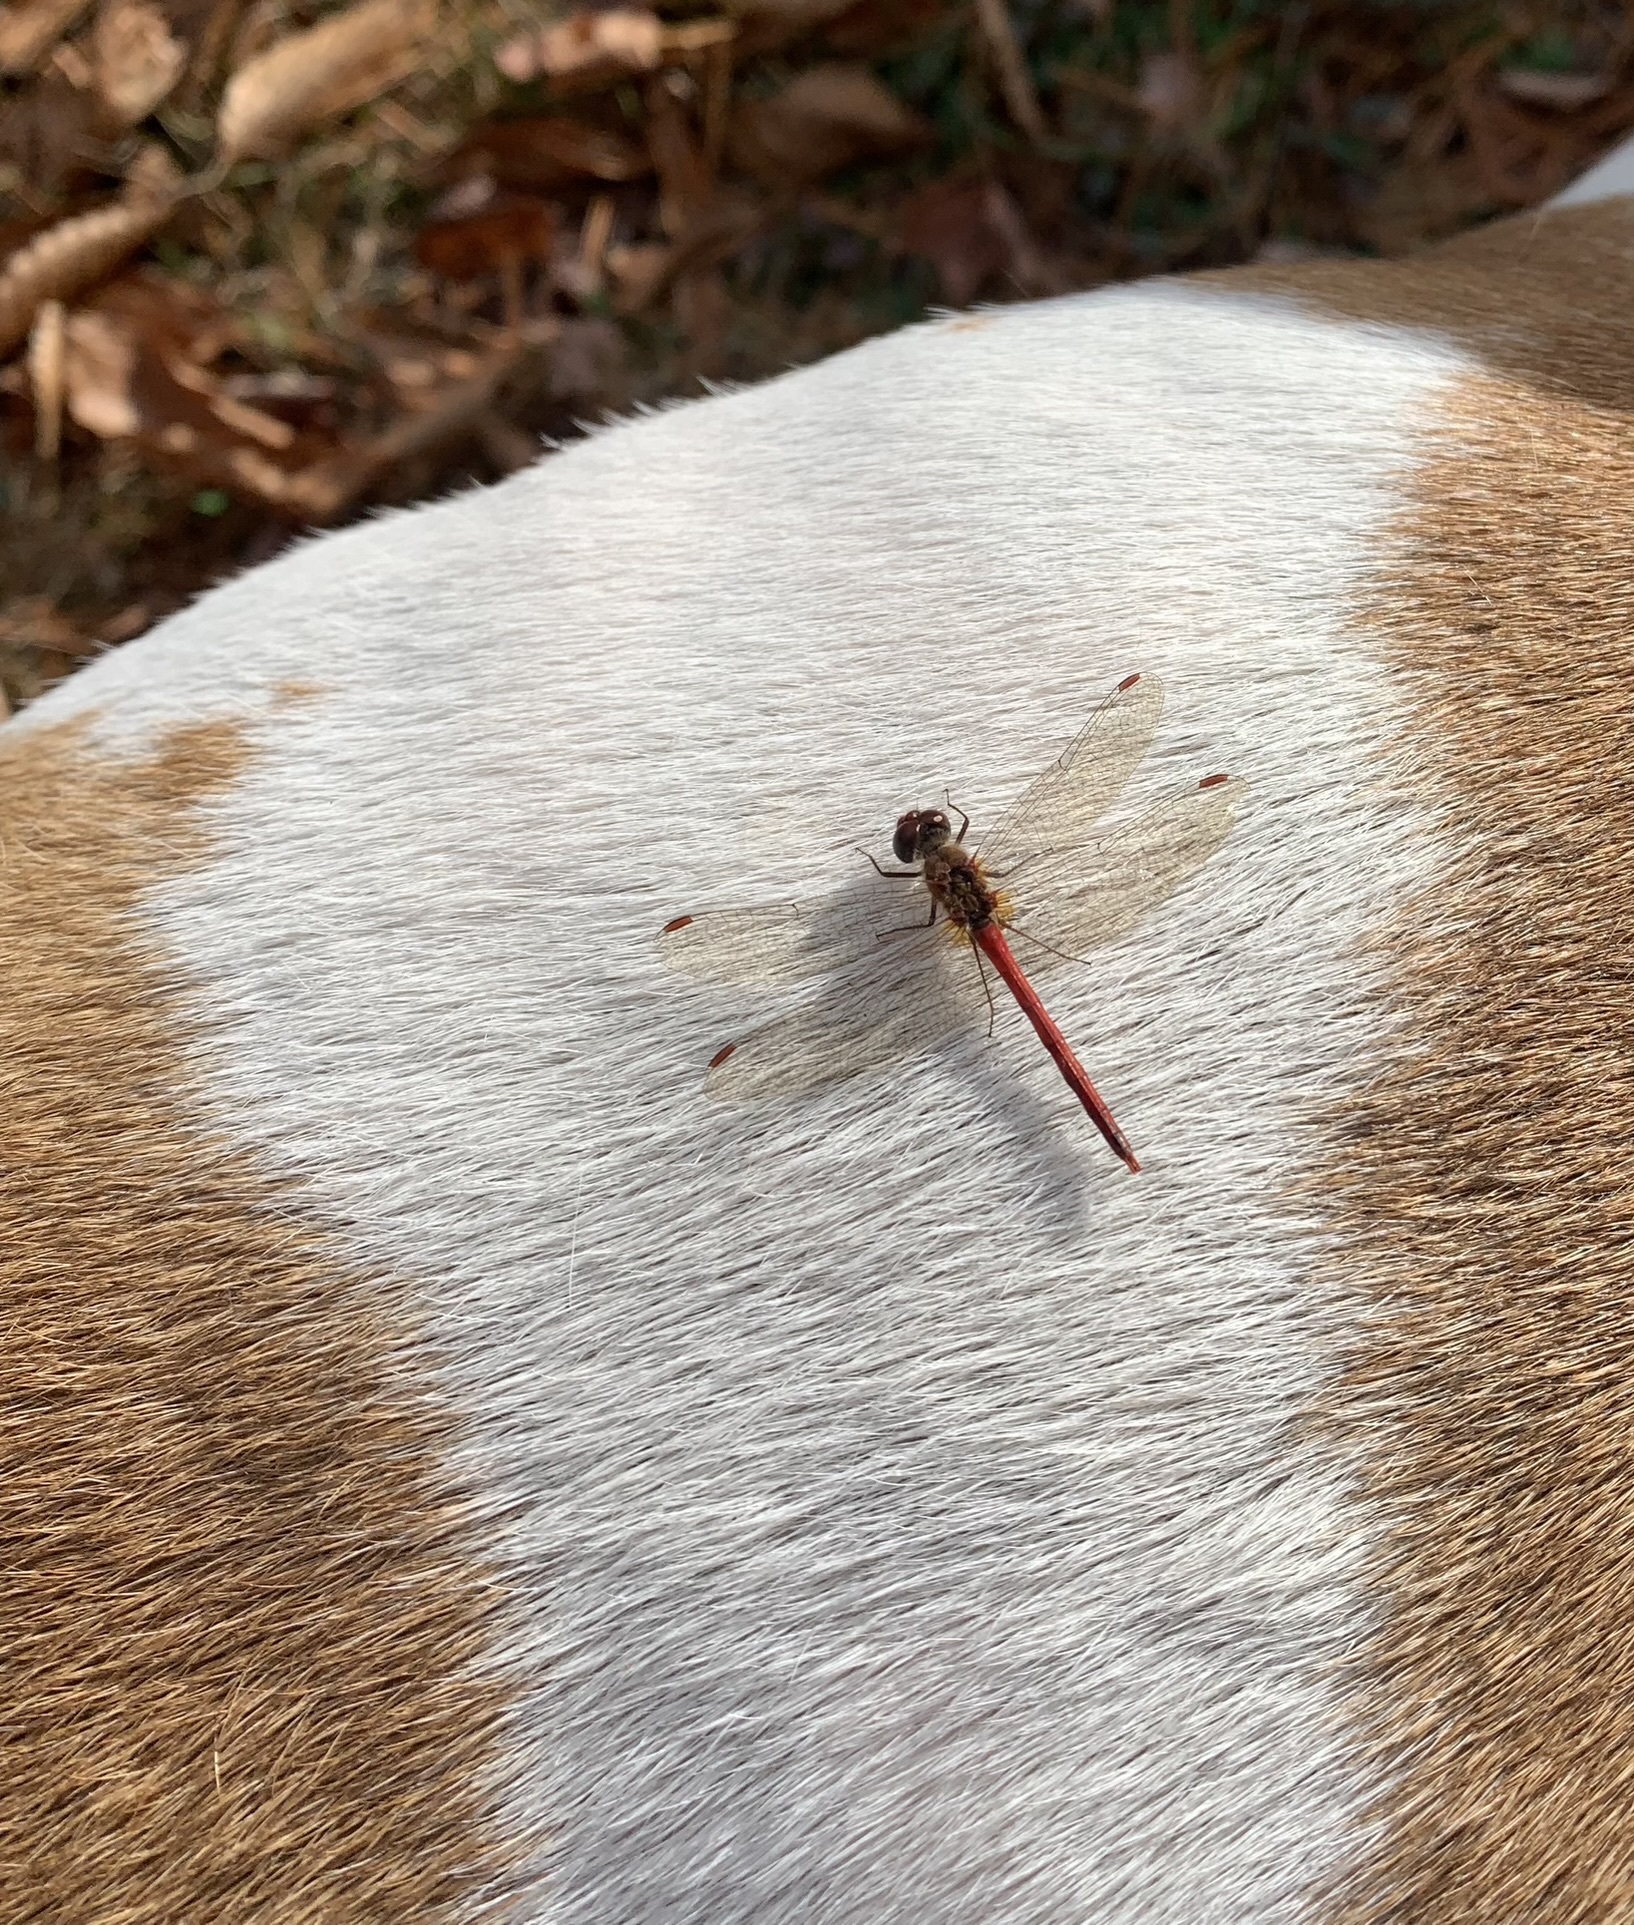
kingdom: Animalia
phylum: Arthropoda
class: Insecta
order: Odonata
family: Libellulidae
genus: Sympetrum
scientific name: Sympetrum vicinum
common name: Autumn meadowhawk
